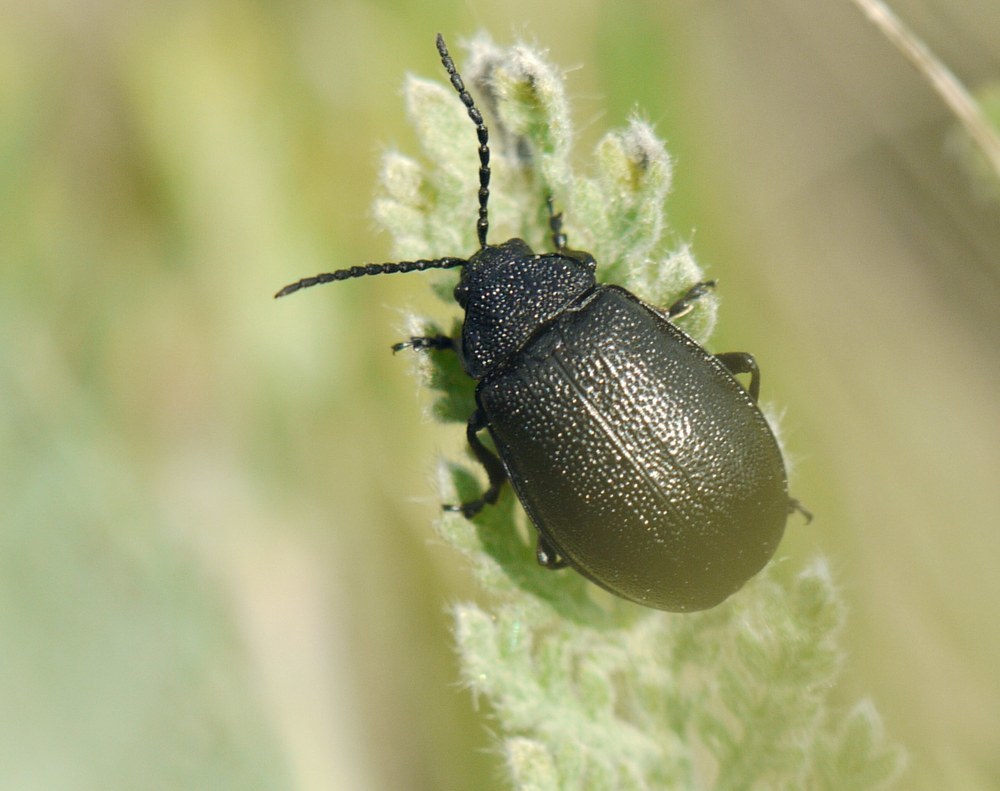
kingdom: Animalia
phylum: Arthropoda
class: Insecta
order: Coleoptera
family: Chrysomelidae
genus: Galeruca
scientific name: Galeruca tanaceti
